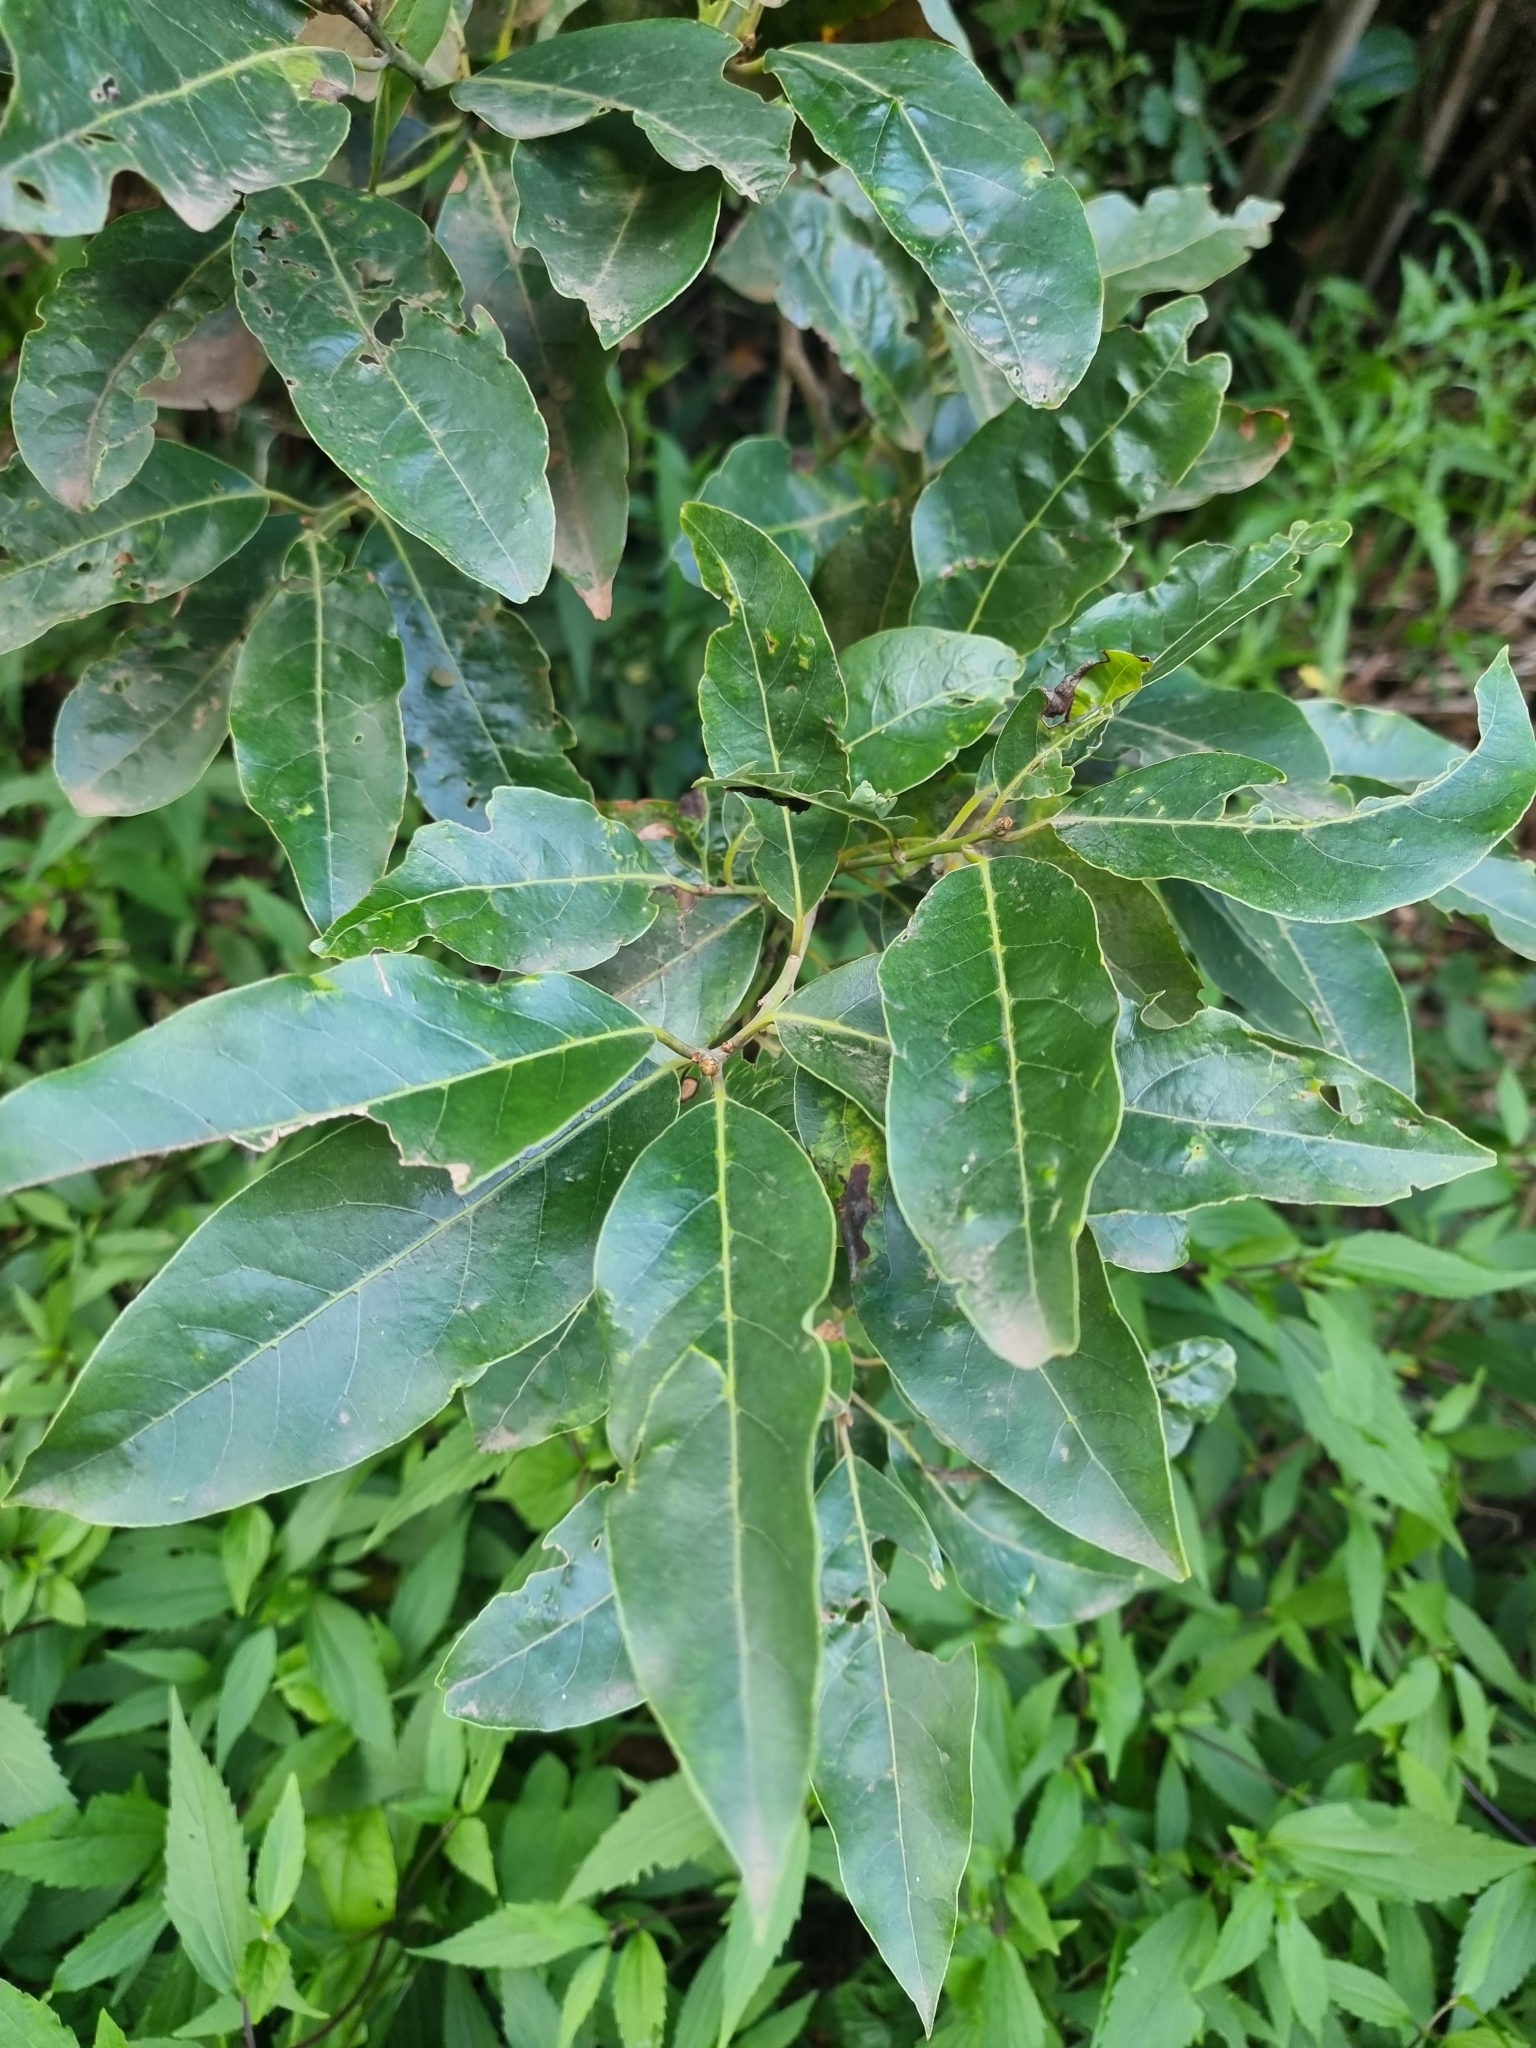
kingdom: Plantae
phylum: Tracheophyta
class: Magnoliopsida
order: Laurales
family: Lauraceae
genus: Laurus
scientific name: Laurus novocanariensis
